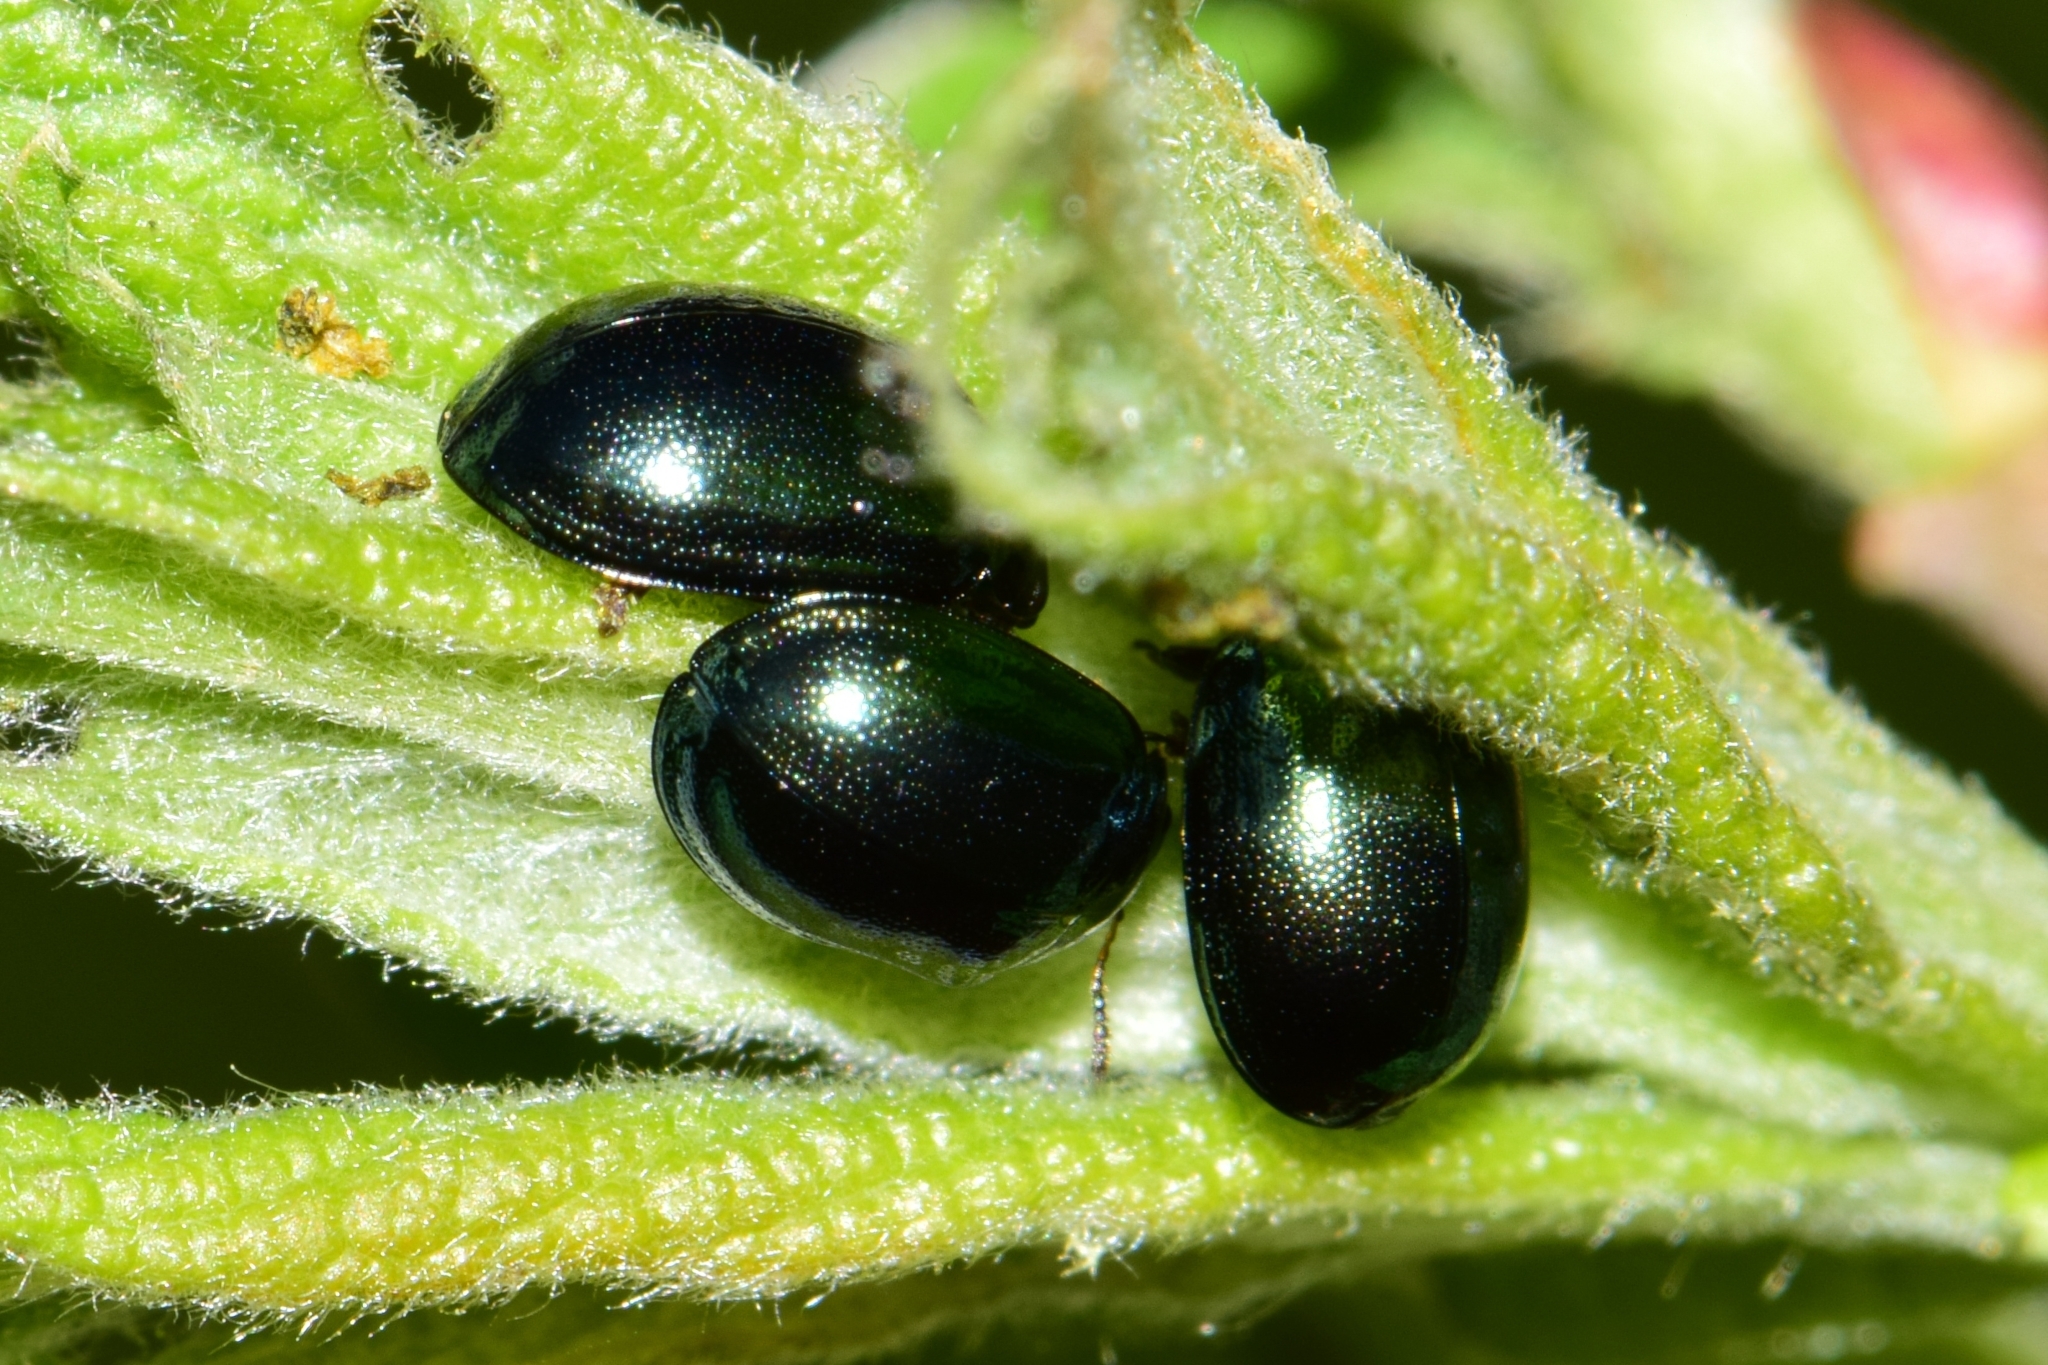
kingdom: Animalia
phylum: Arthropoda
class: Insecta
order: Coleoptera
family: Chrysomelidae
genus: Plagiodera
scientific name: Plagiodera versicolora
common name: Imported willow leaf beetle
